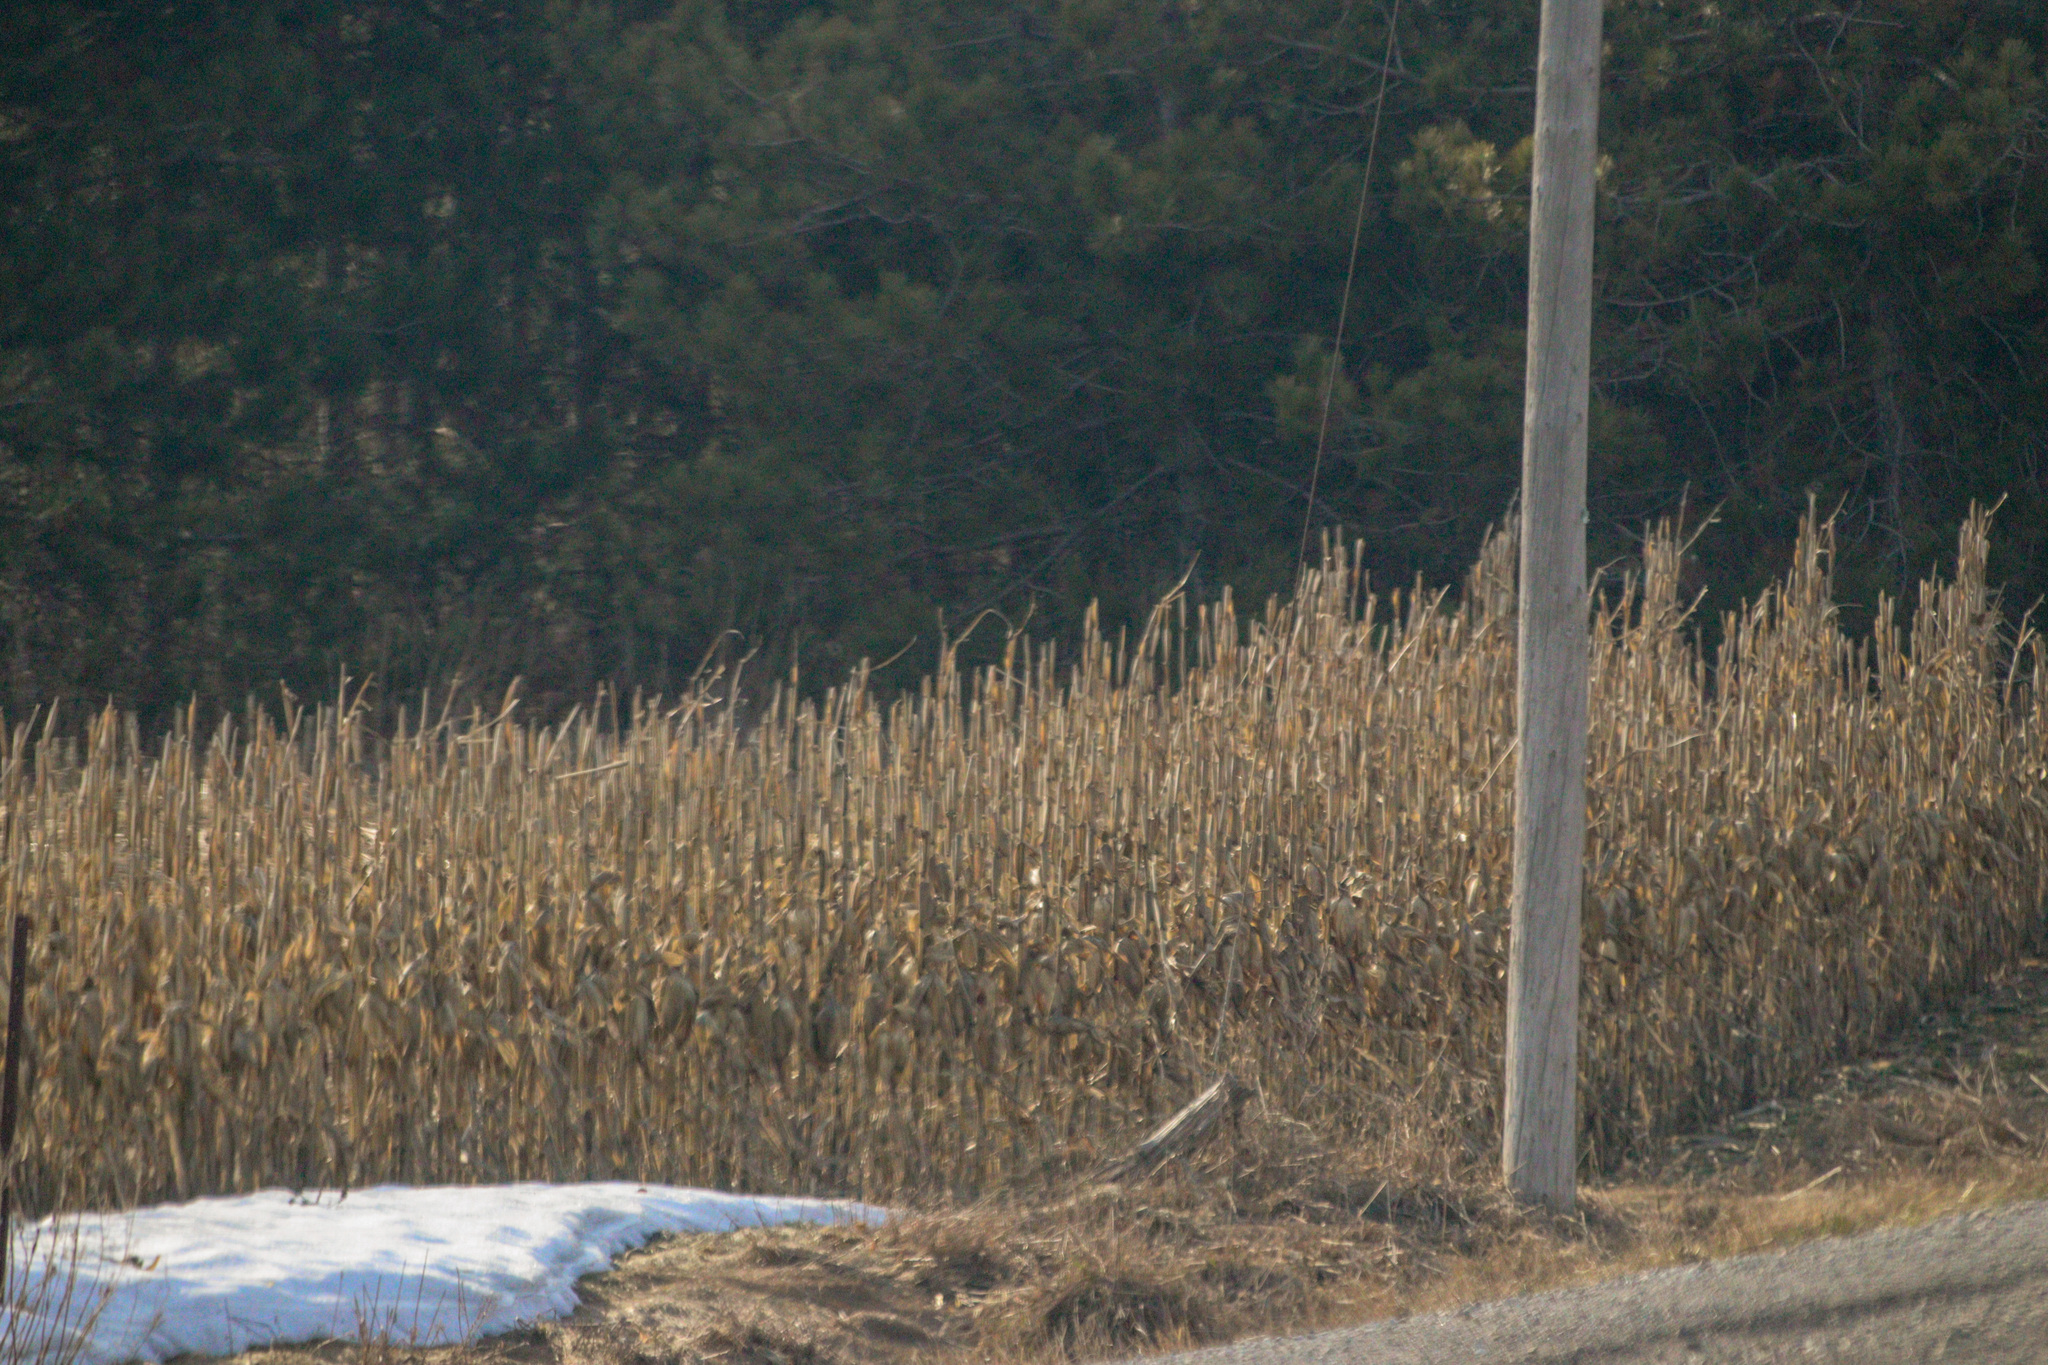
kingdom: Plantae
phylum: Tracheophyta
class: Liliopsida
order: Poales
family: Poaceae
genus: Zea
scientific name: Zea mays
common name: Maize
